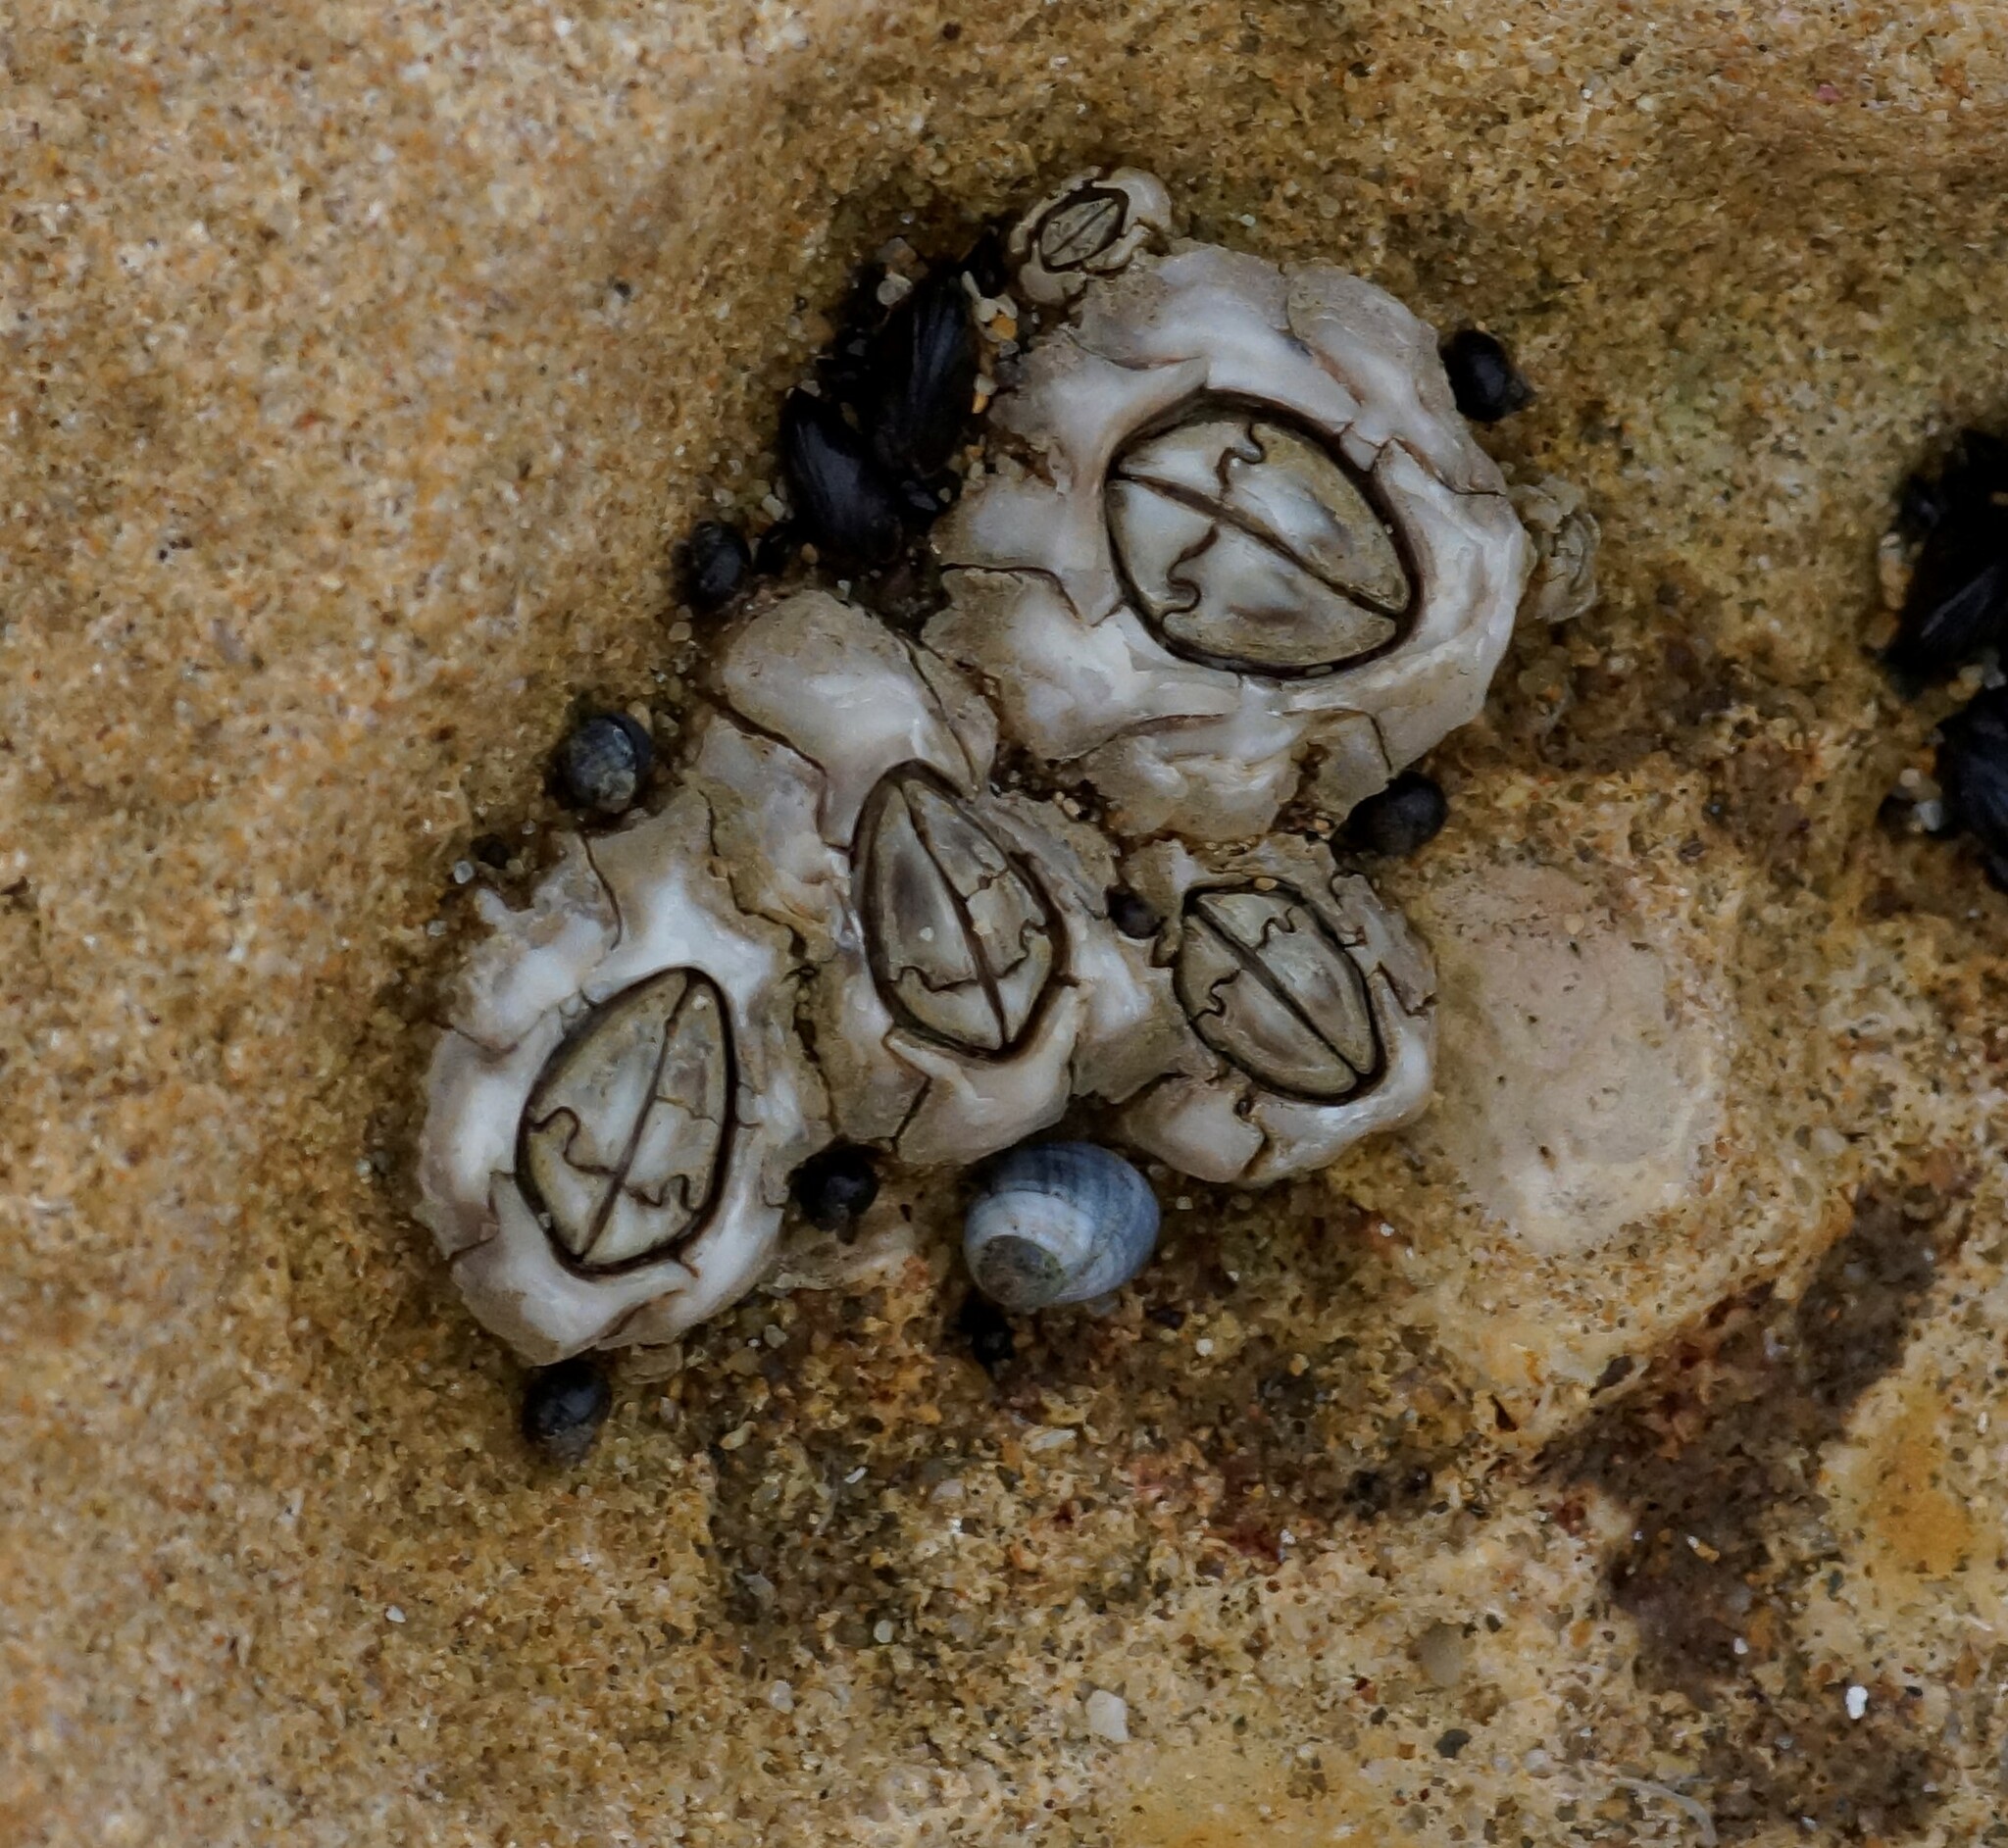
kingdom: Animalia
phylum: Arthropoda
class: Maxillopoda
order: Sessilia
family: Chthamalidae
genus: Chthamalus
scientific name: Chthamalus antennatus
